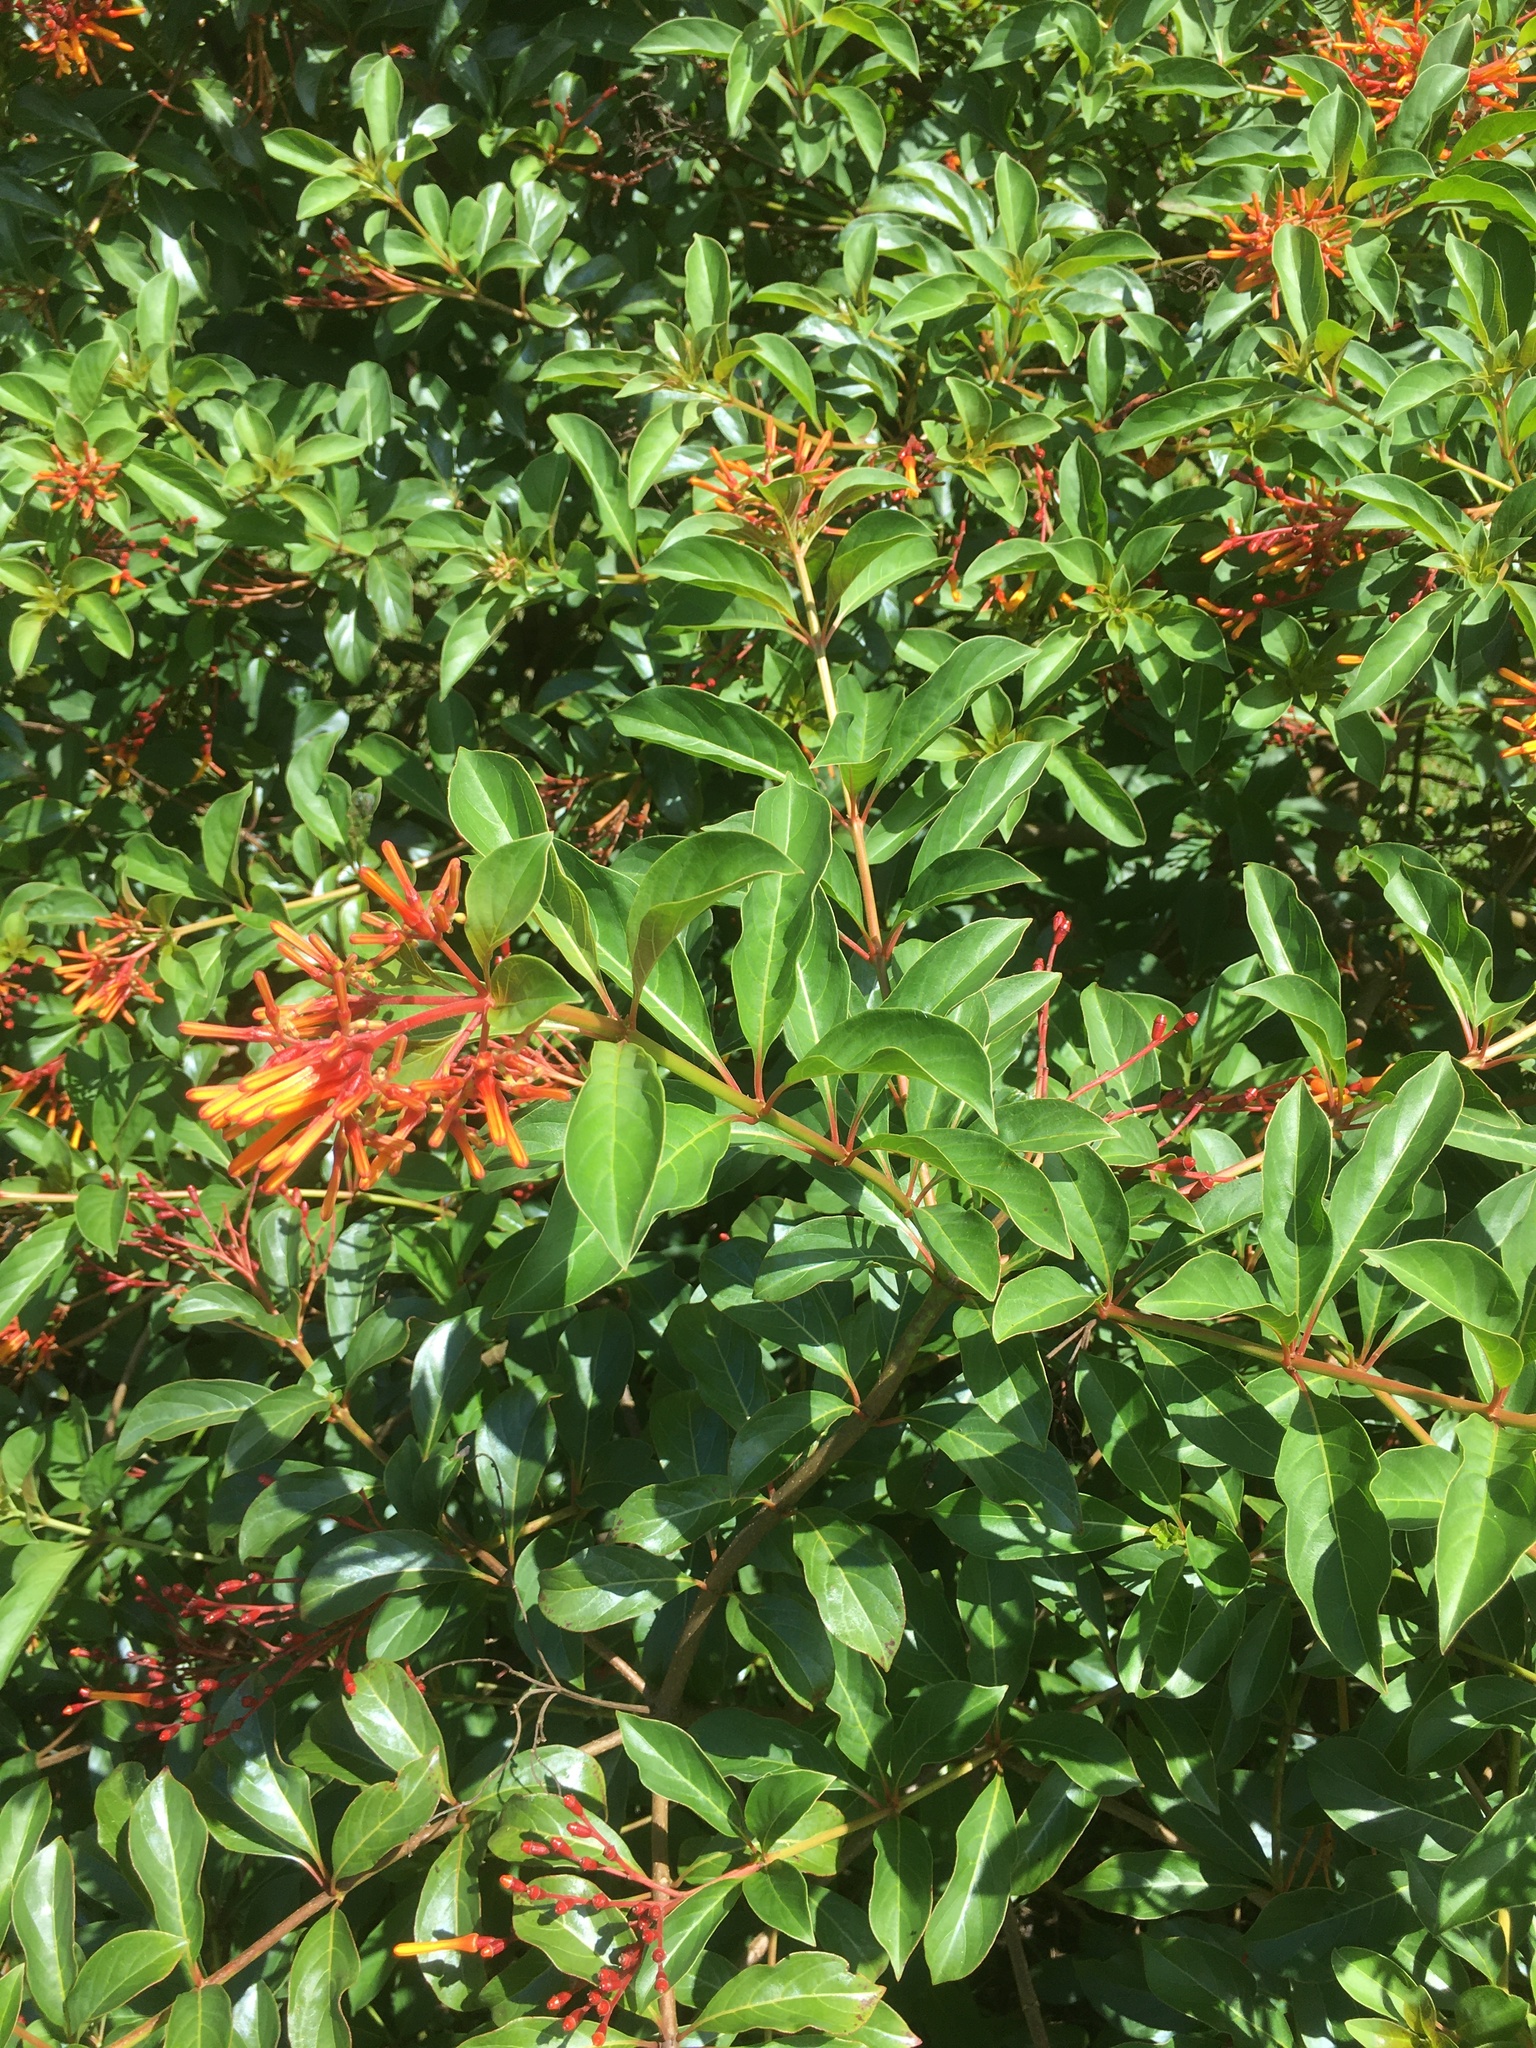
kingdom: Plantae
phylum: Tracheophyta
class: Magnoliopsida
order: Gentianales
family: Rubiaceae
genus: Hamelia
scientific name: Hamelia patens
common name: Redhead
